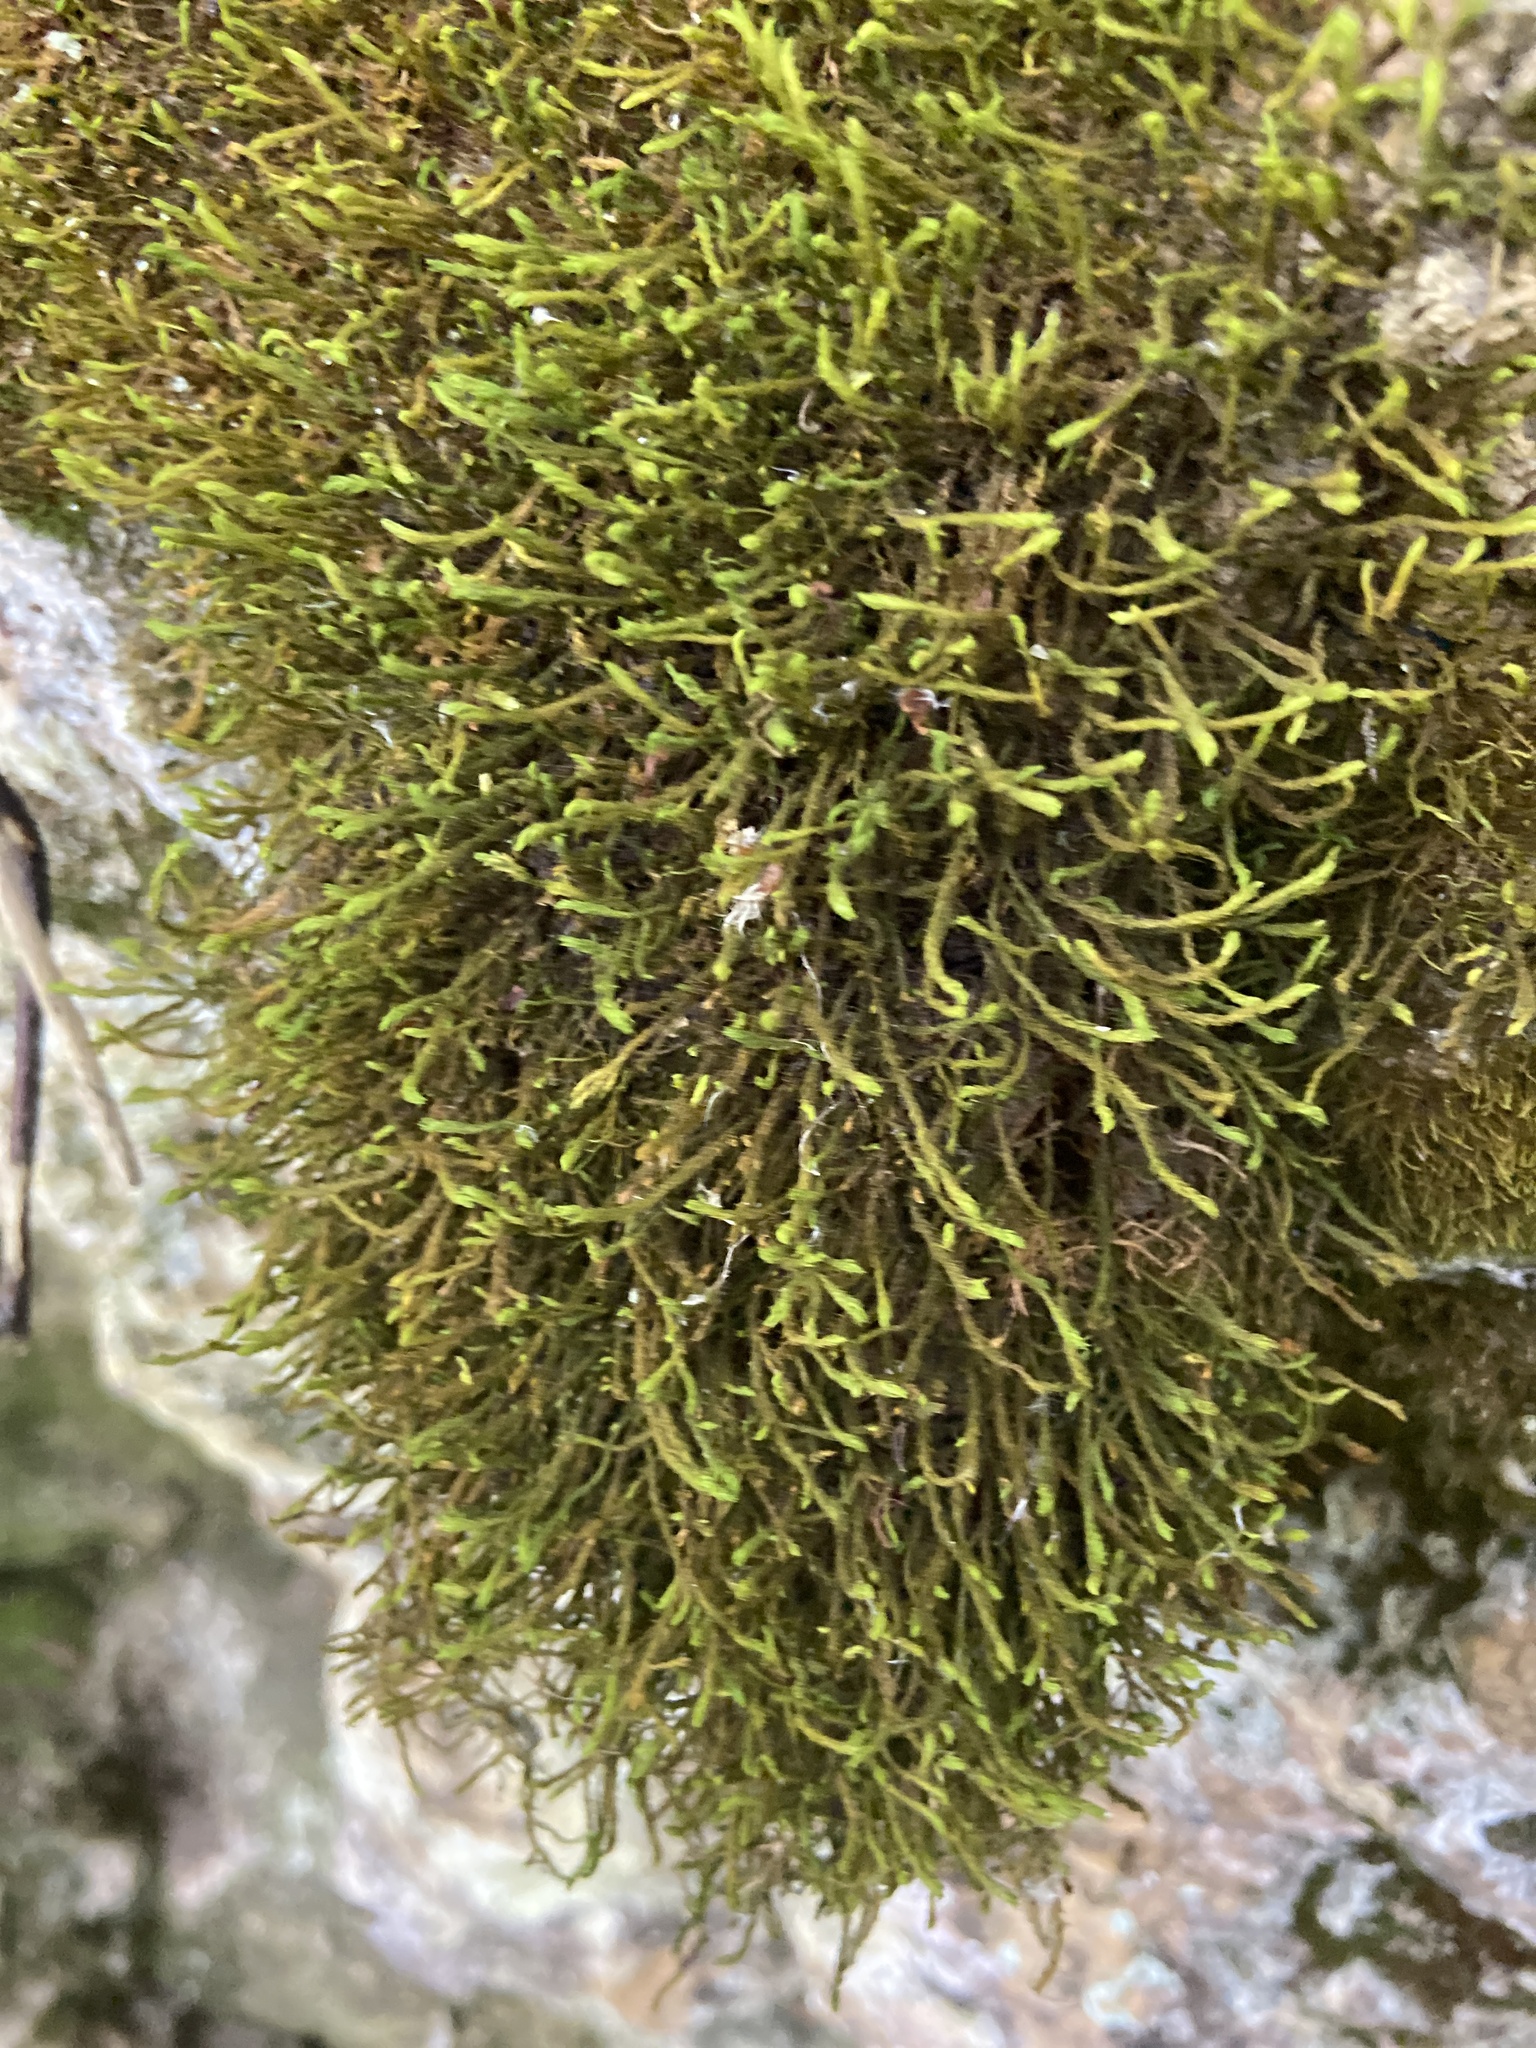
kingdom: Plantae
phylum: Bryophyta
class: Bryopsida
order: Hypnales
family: Anomodontaceae
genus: Anomodon
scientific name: Anomodon viticulosus
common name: Tall anomodon
